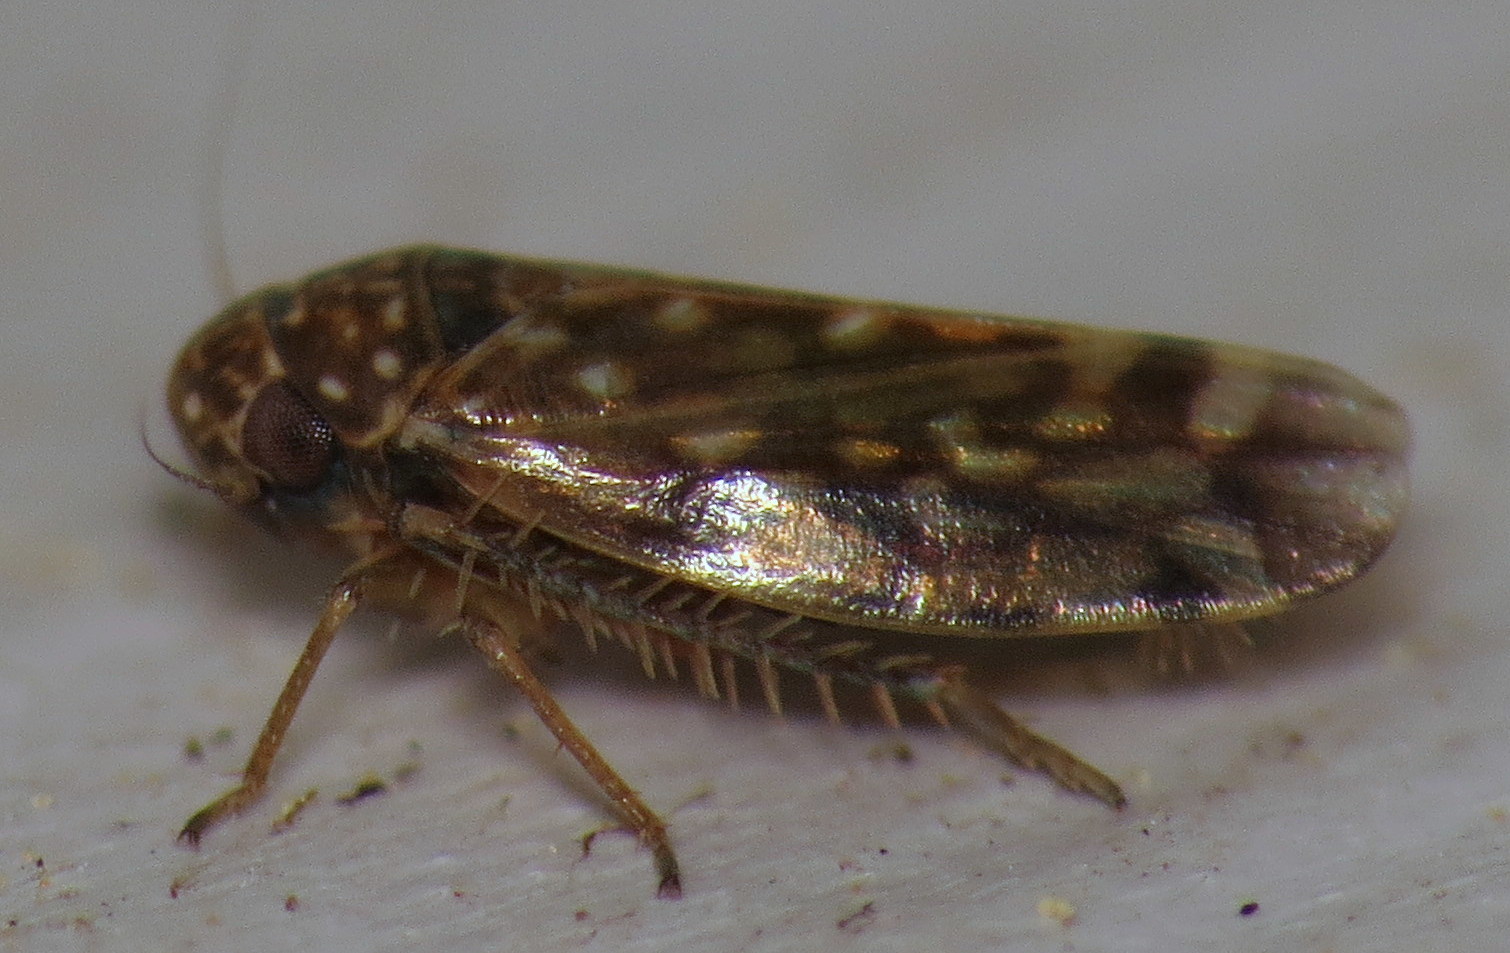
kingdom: Animalia
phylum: Arthropoda
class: Insecta
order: Hemiptera
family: Cicadellidae
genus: Xestocephalus
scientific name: Xestocephalus superbus
